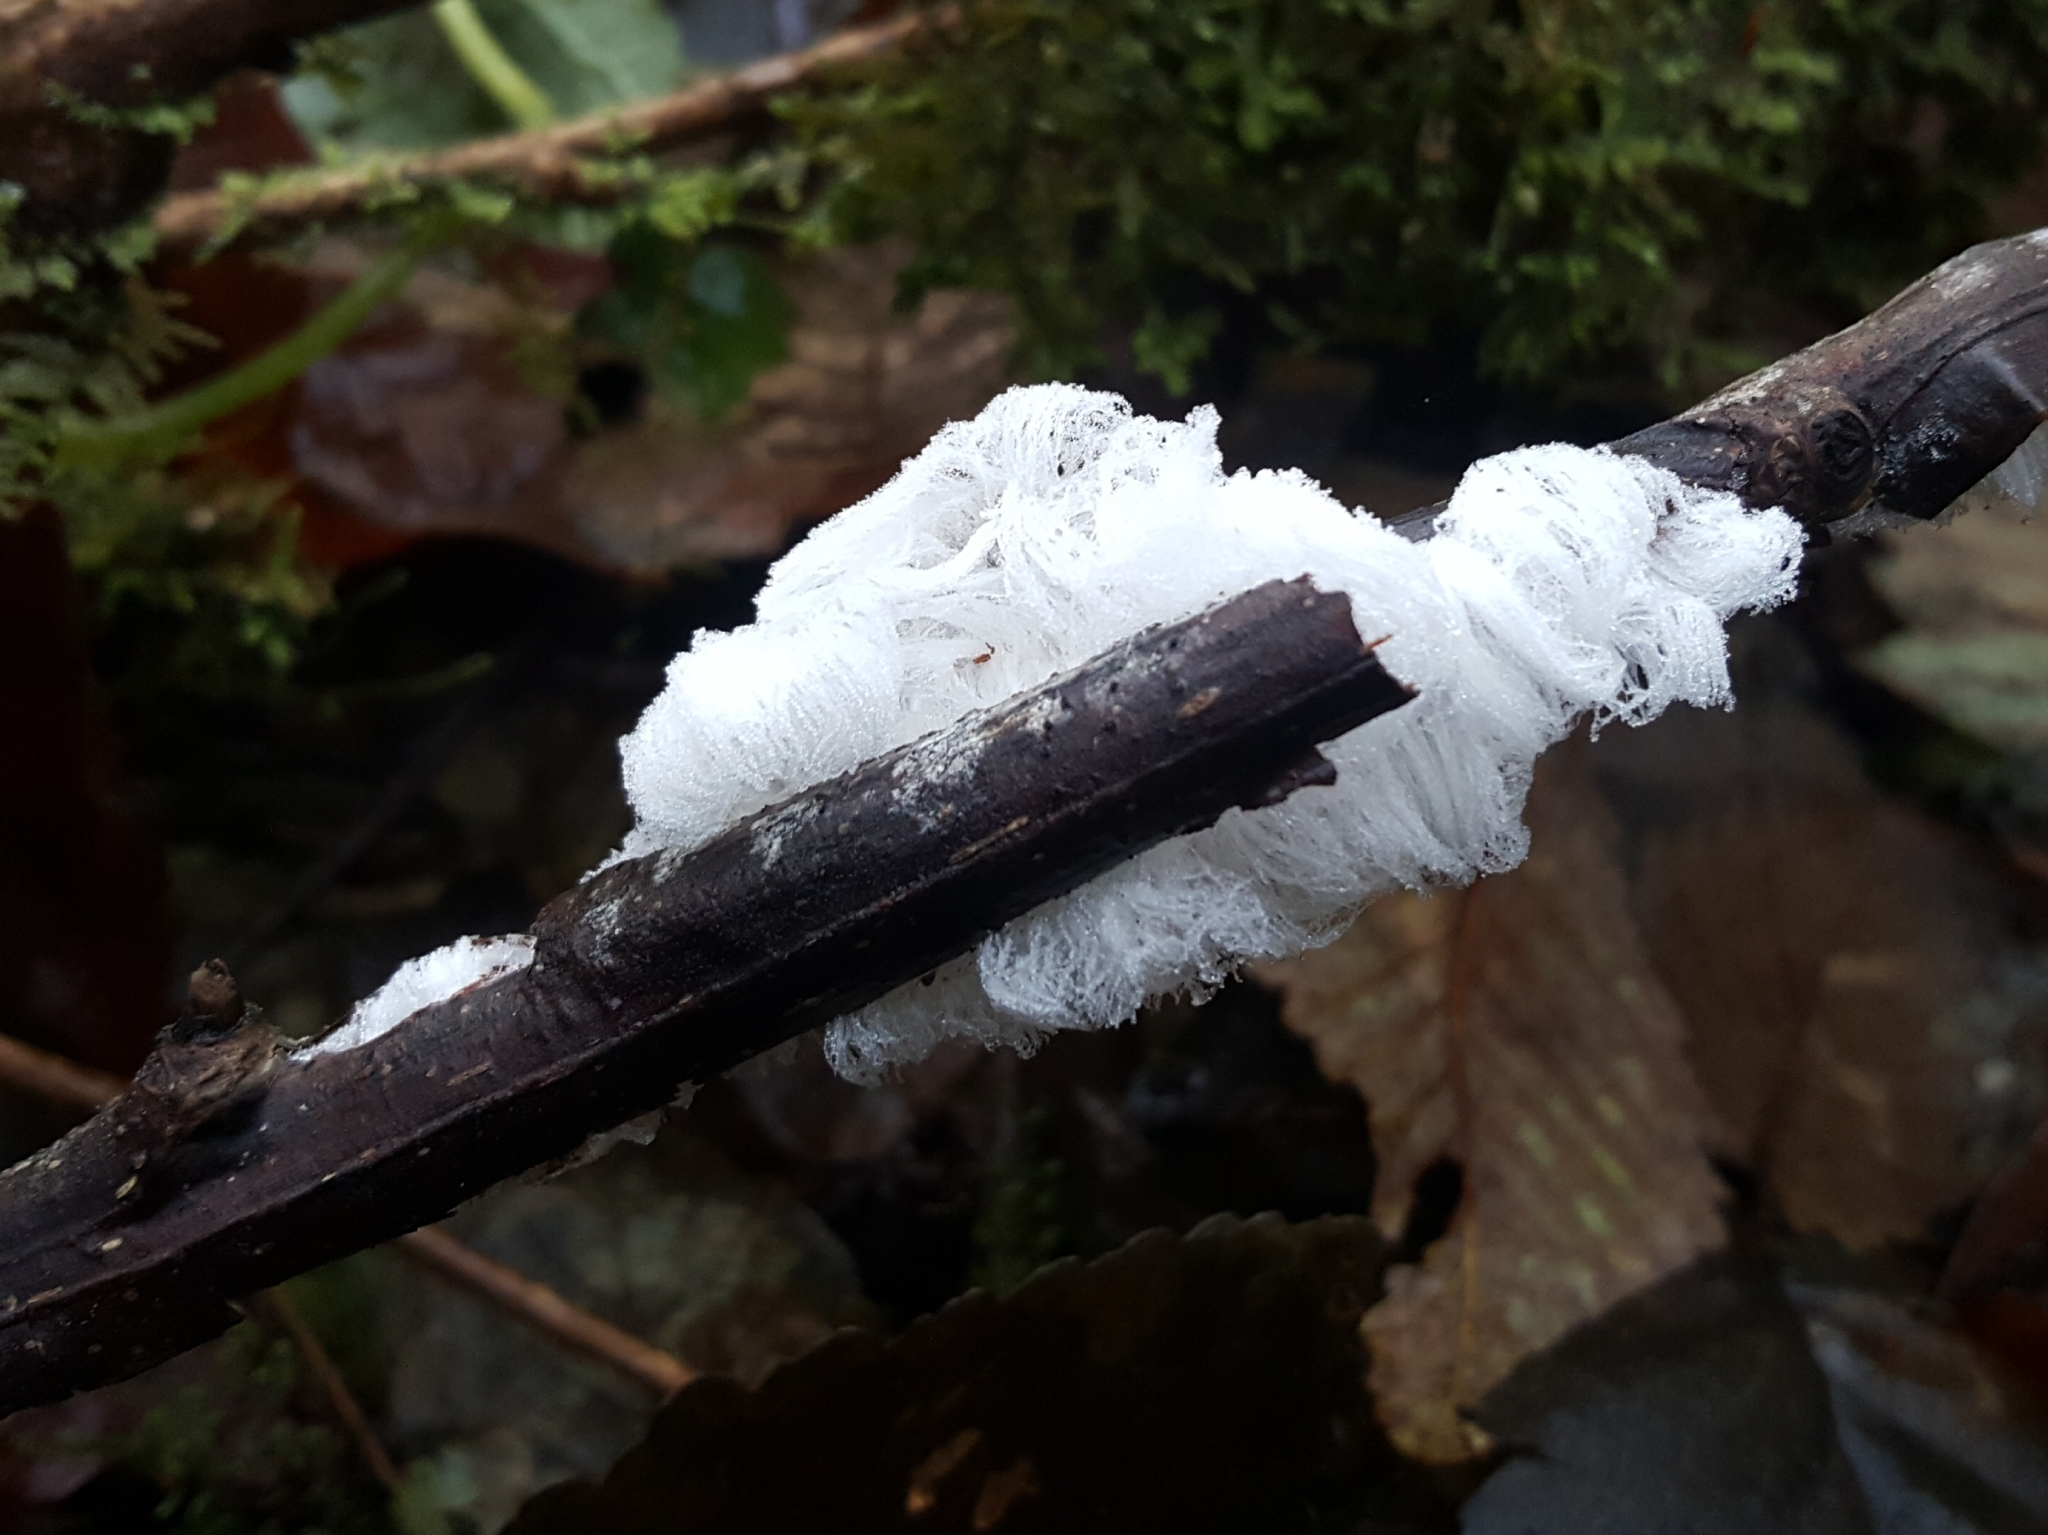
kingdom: Fungi
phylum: Basidiomycota
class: Agaricomycetes
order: Auriculariales
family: Auriculariaceae
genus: Exidiopsis
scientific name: Exidiopsis effusa
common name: Hair ice crust
